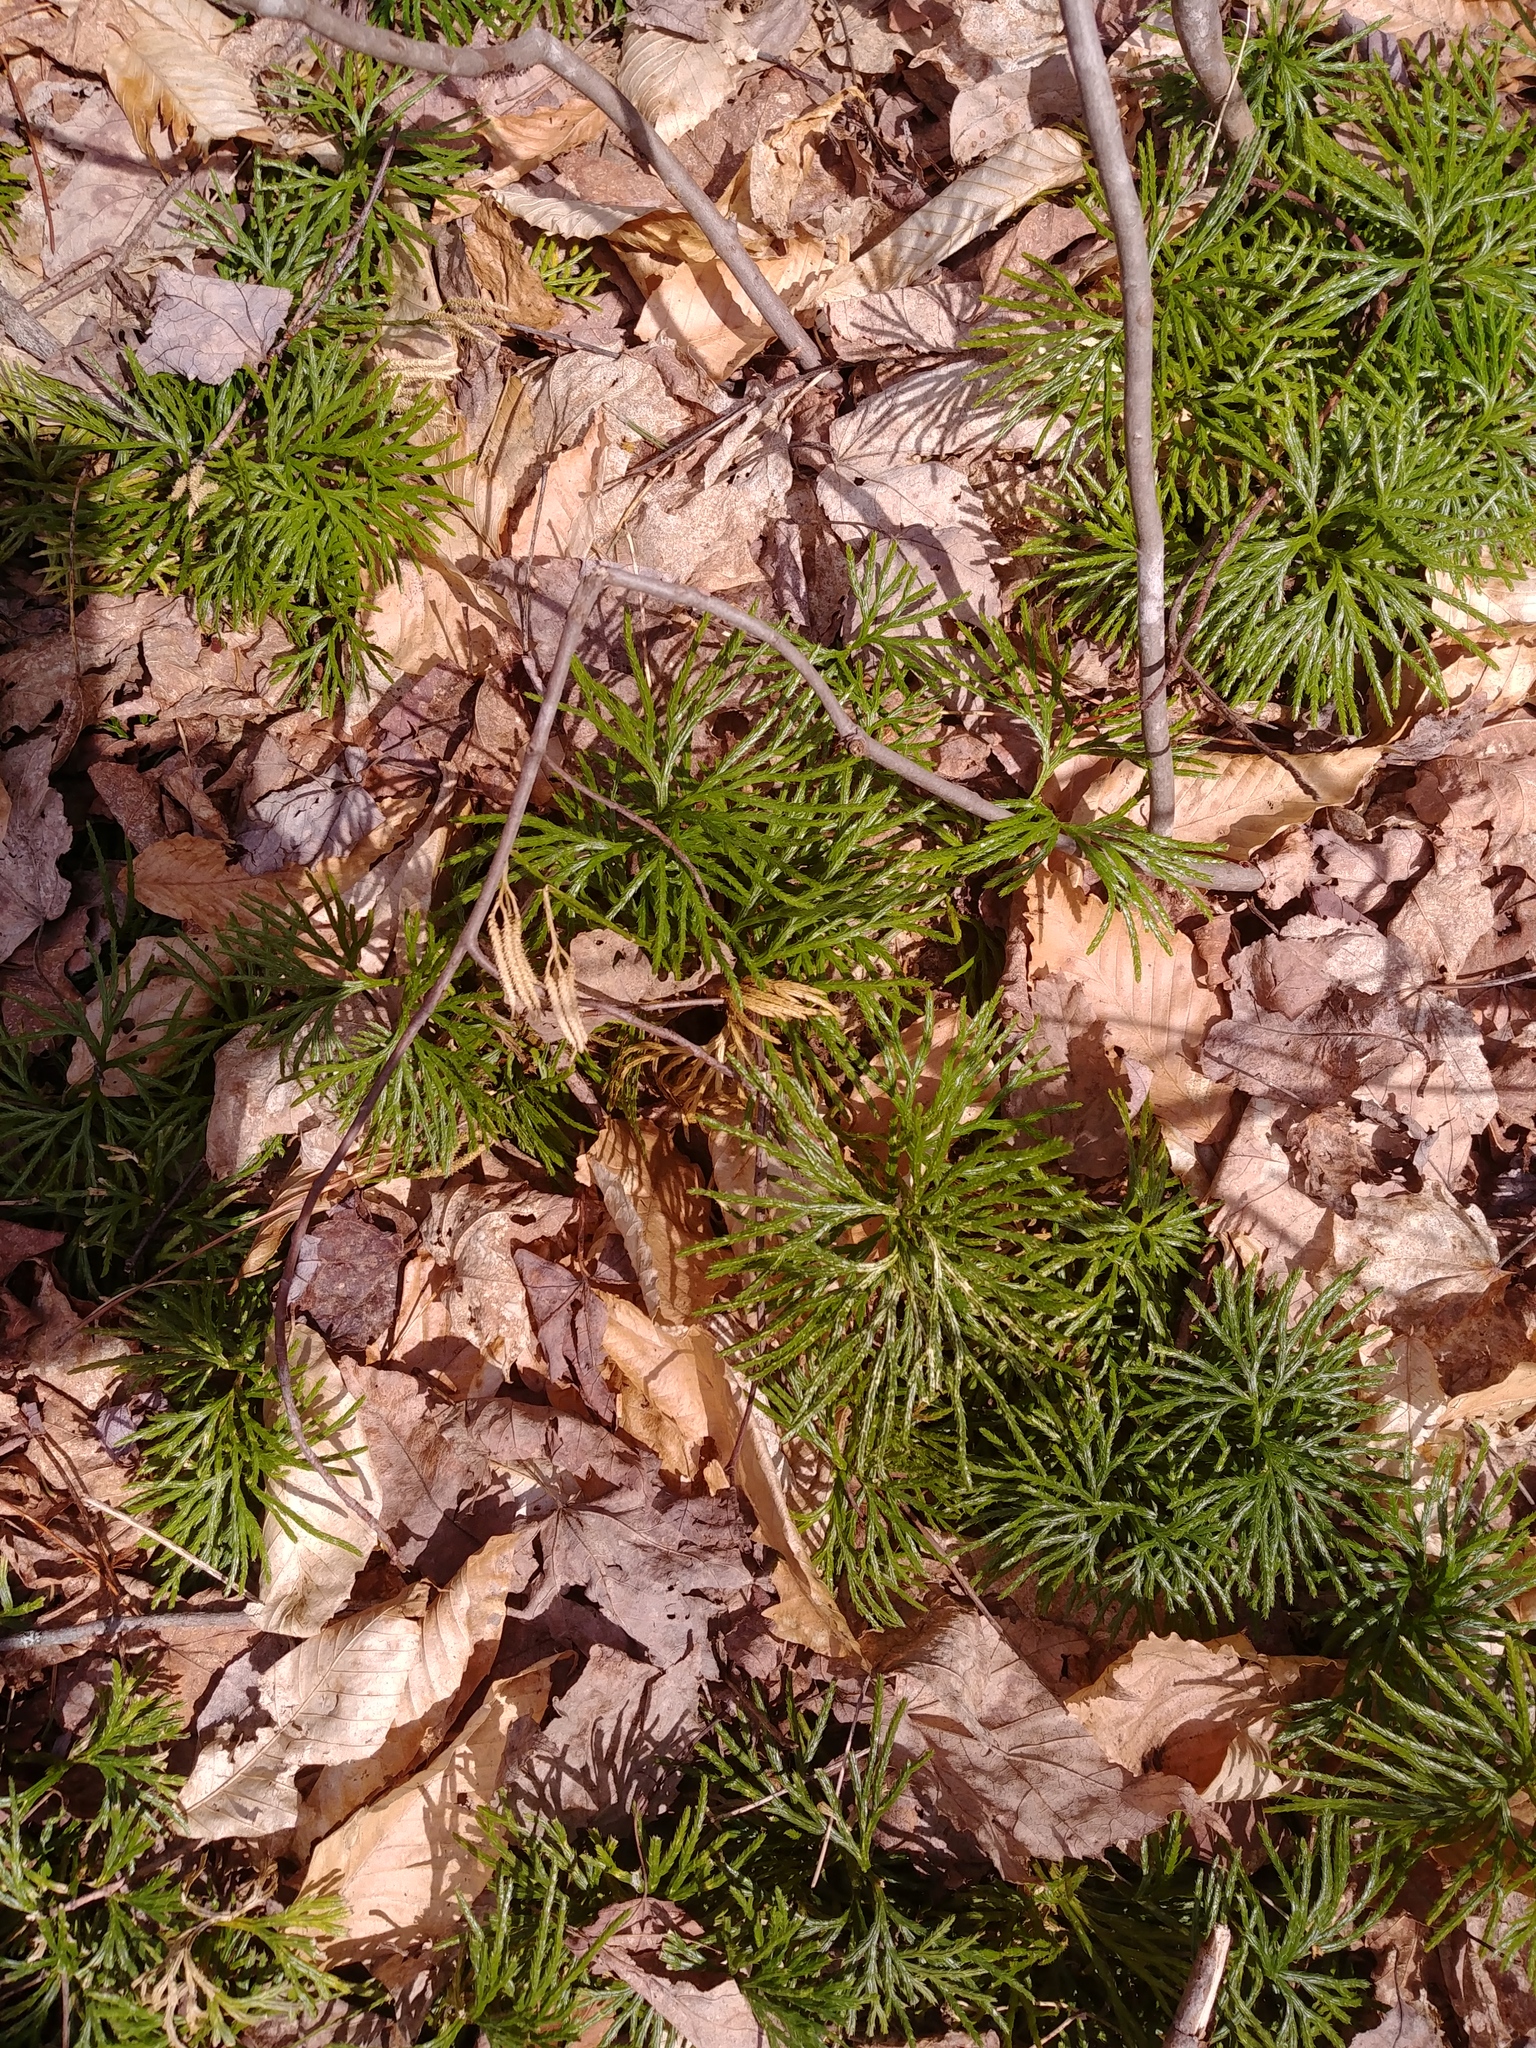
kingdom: Plantae
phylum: Tracheophyta
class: Lycopodiopsida
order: Lycopodiales
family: Lycopodiaceae
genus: Diphasiastrum
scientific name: Diphasiastrum digitatum
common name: Southern running-pine
